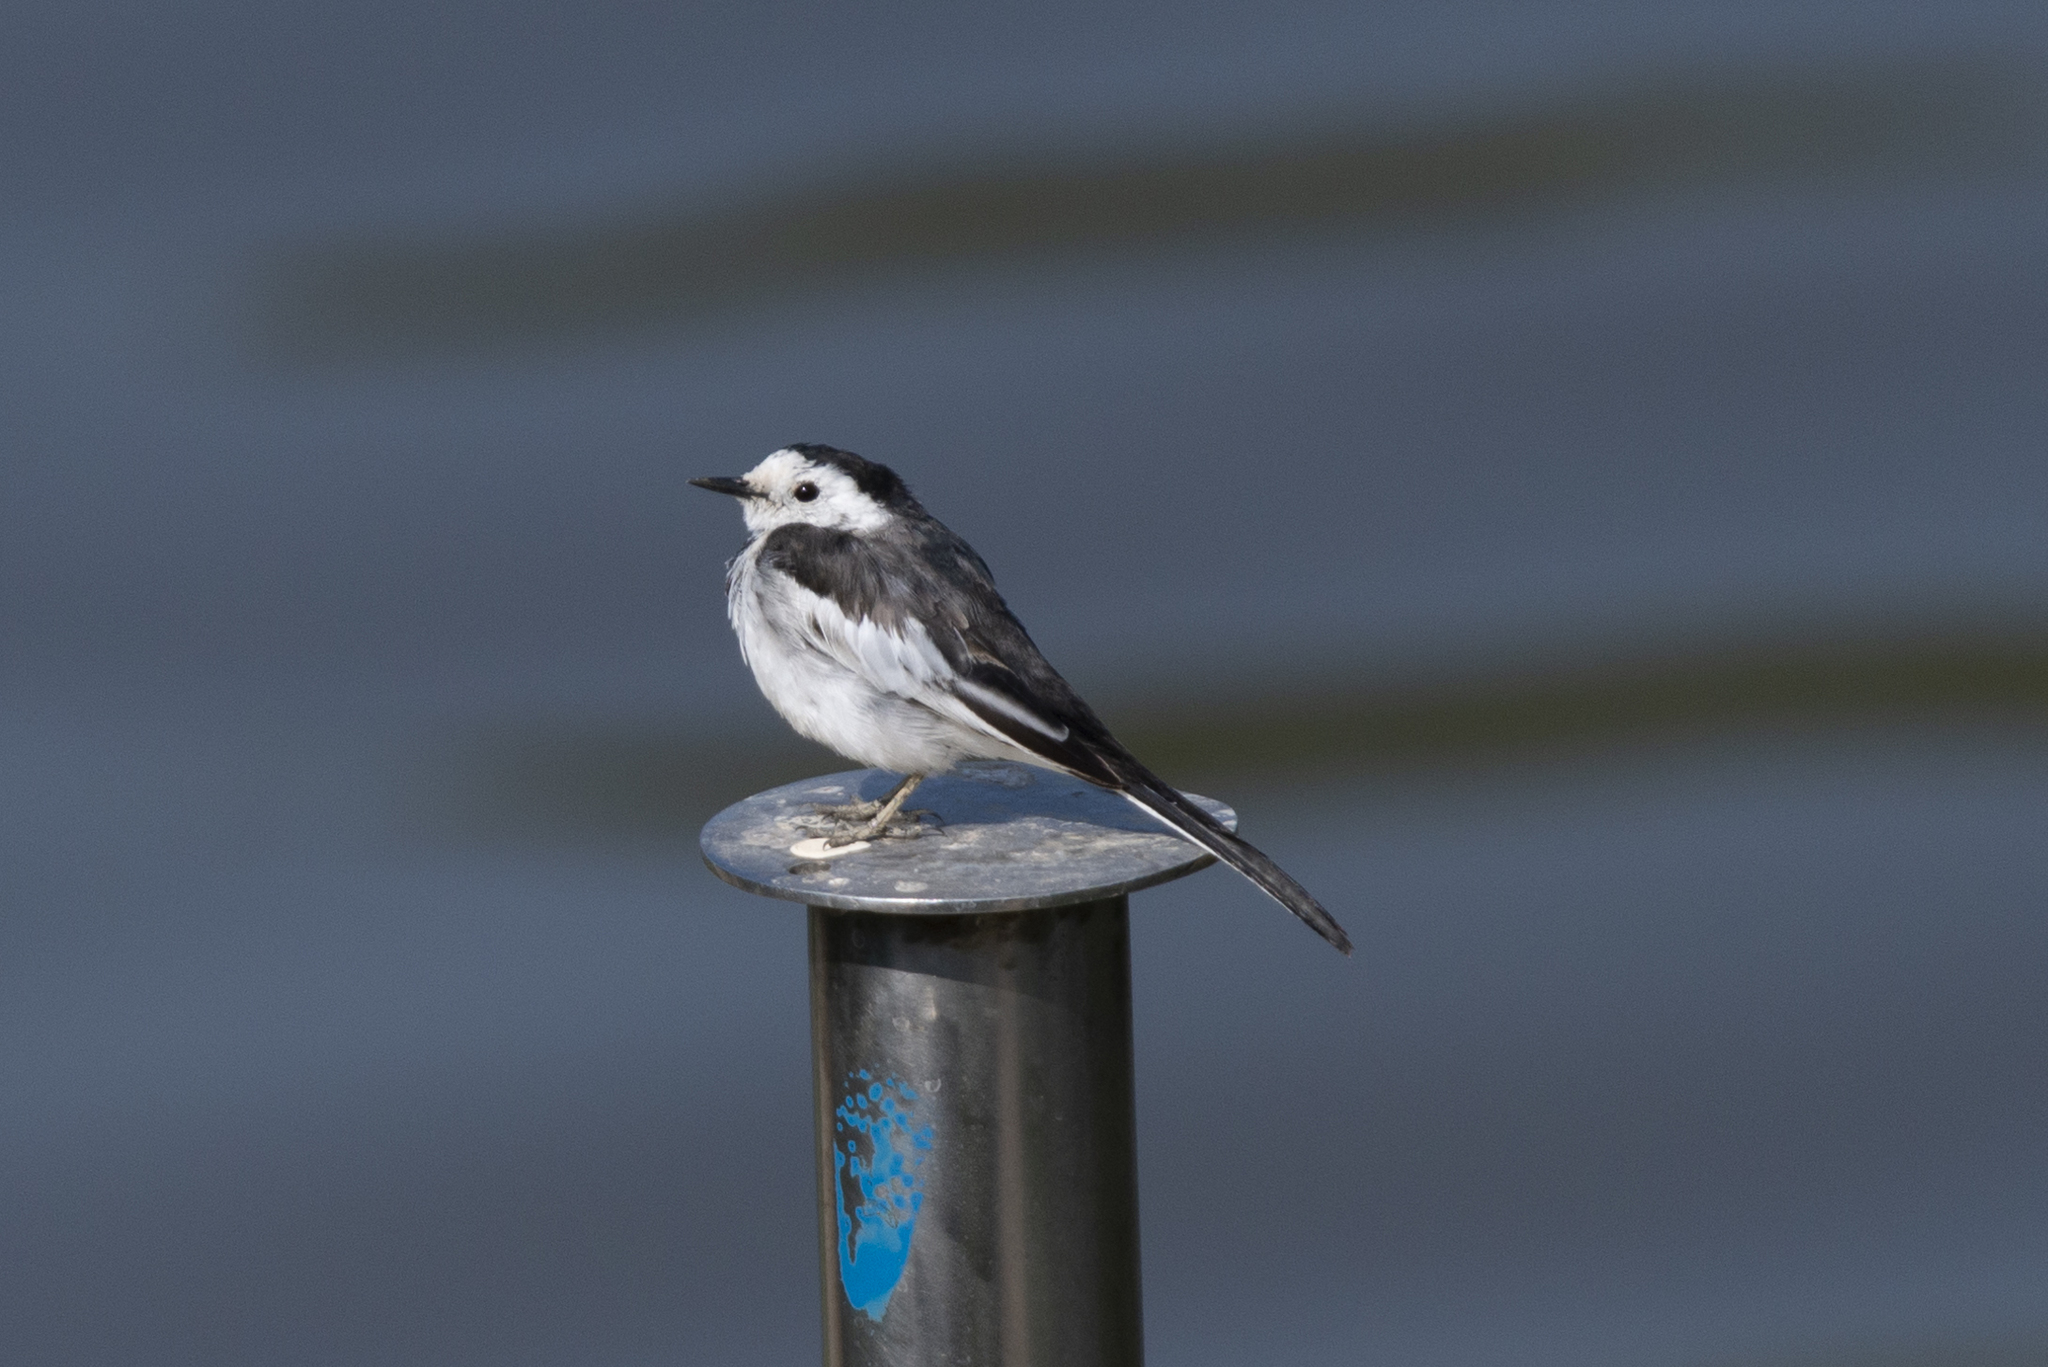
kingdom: Animalia
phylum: Chordata
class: Aves
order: Passeriformes
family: Motacillidae
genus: Motacilla
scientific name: Motacilla alba
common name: White wagtail
